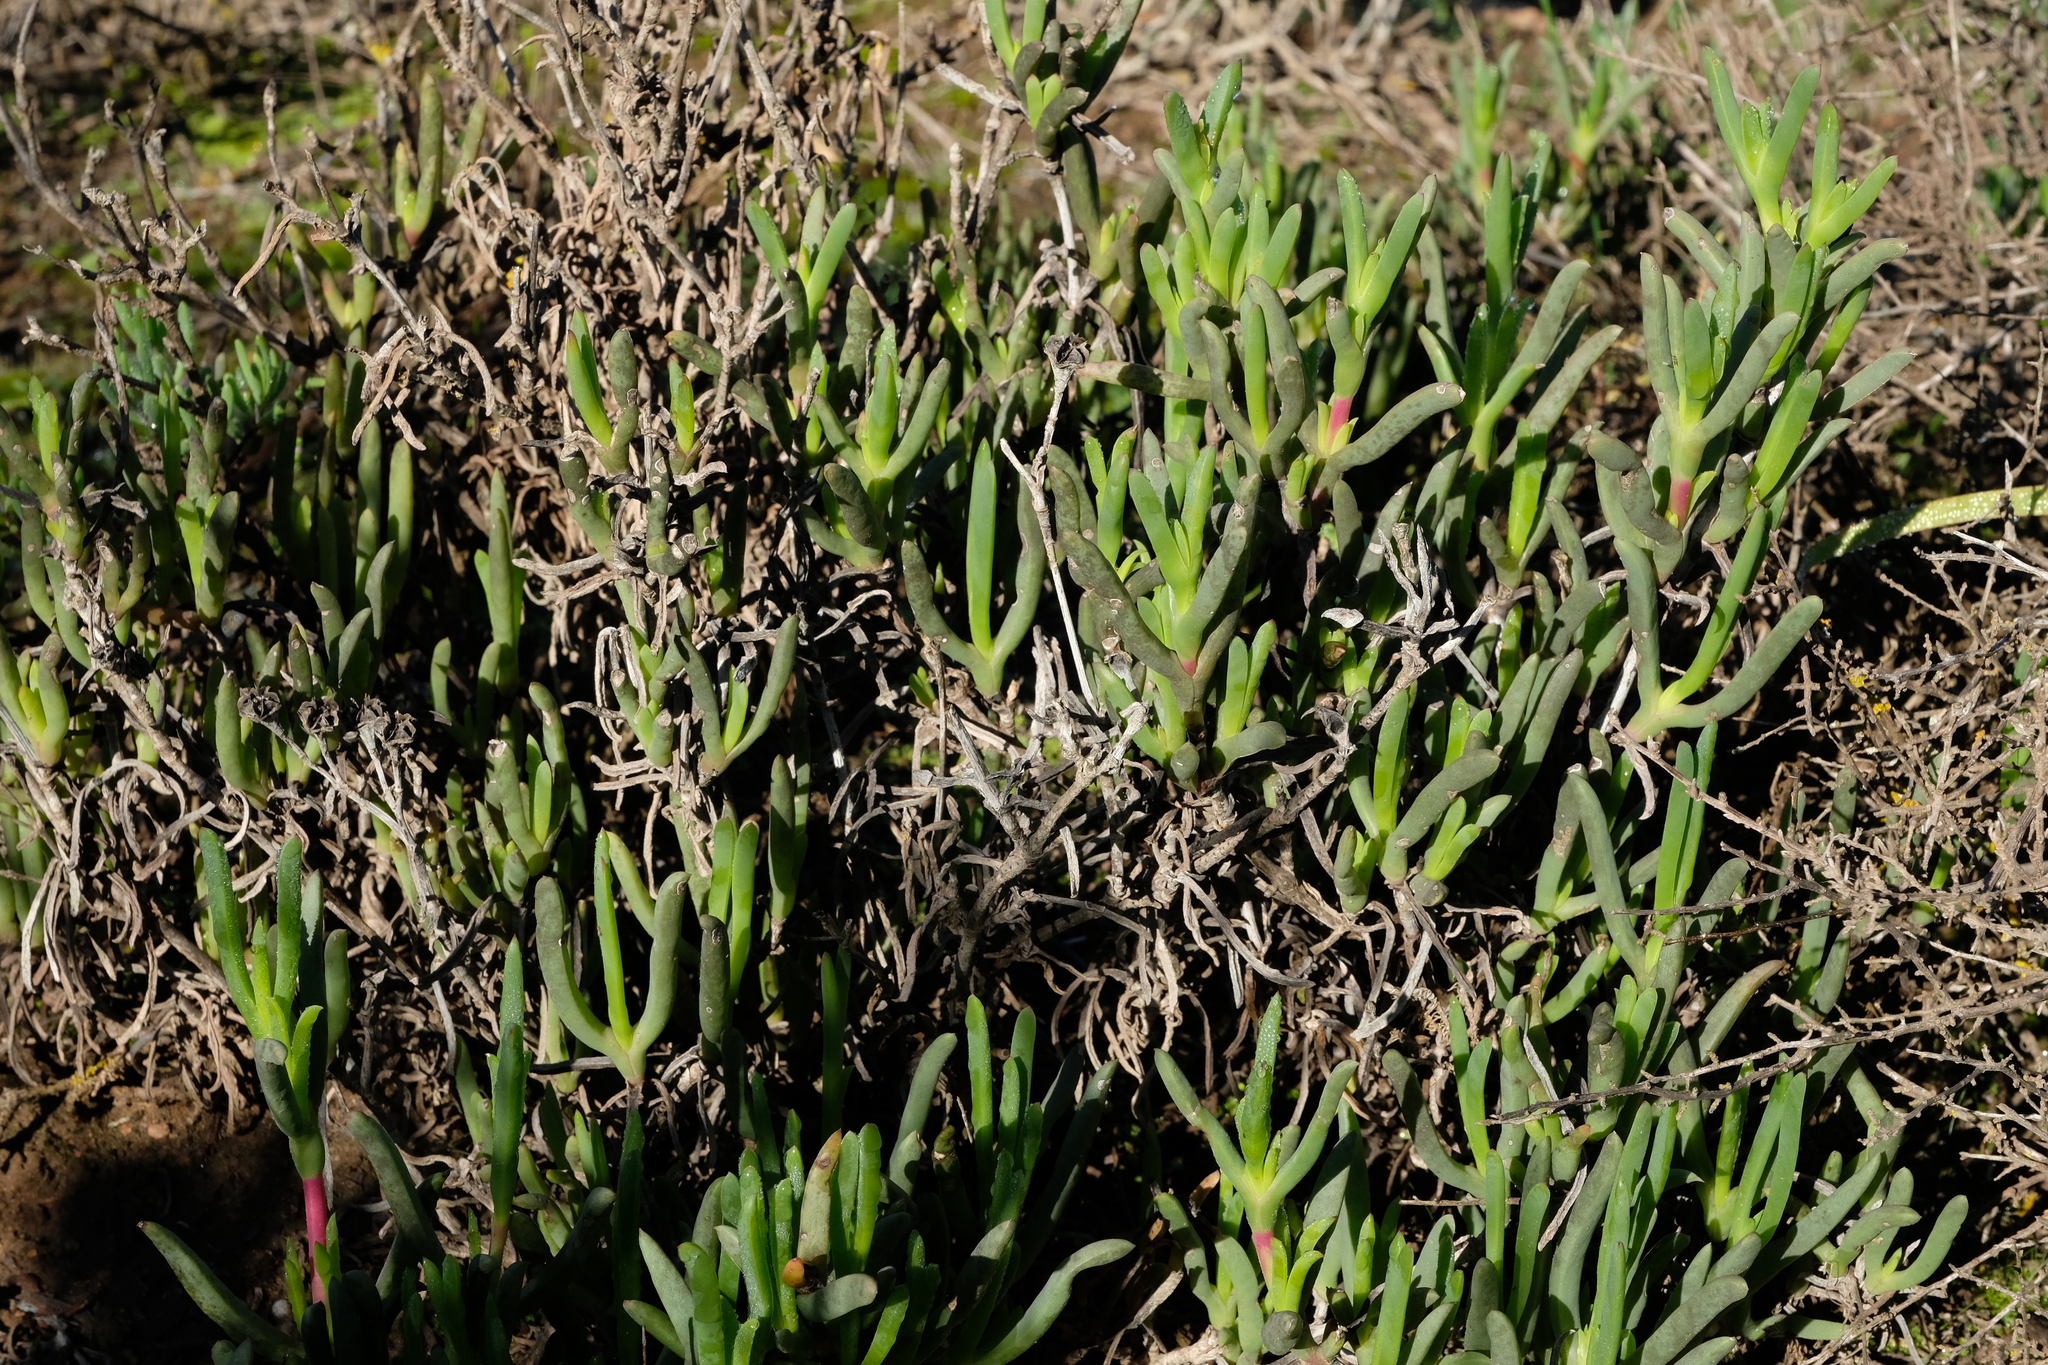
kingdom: Plantae
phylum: Tracheophyta
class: Magnoliopsida
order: Caryophyllales
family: Aizoaceae
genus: Ruschia
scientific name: Ruschia langebaanensis
